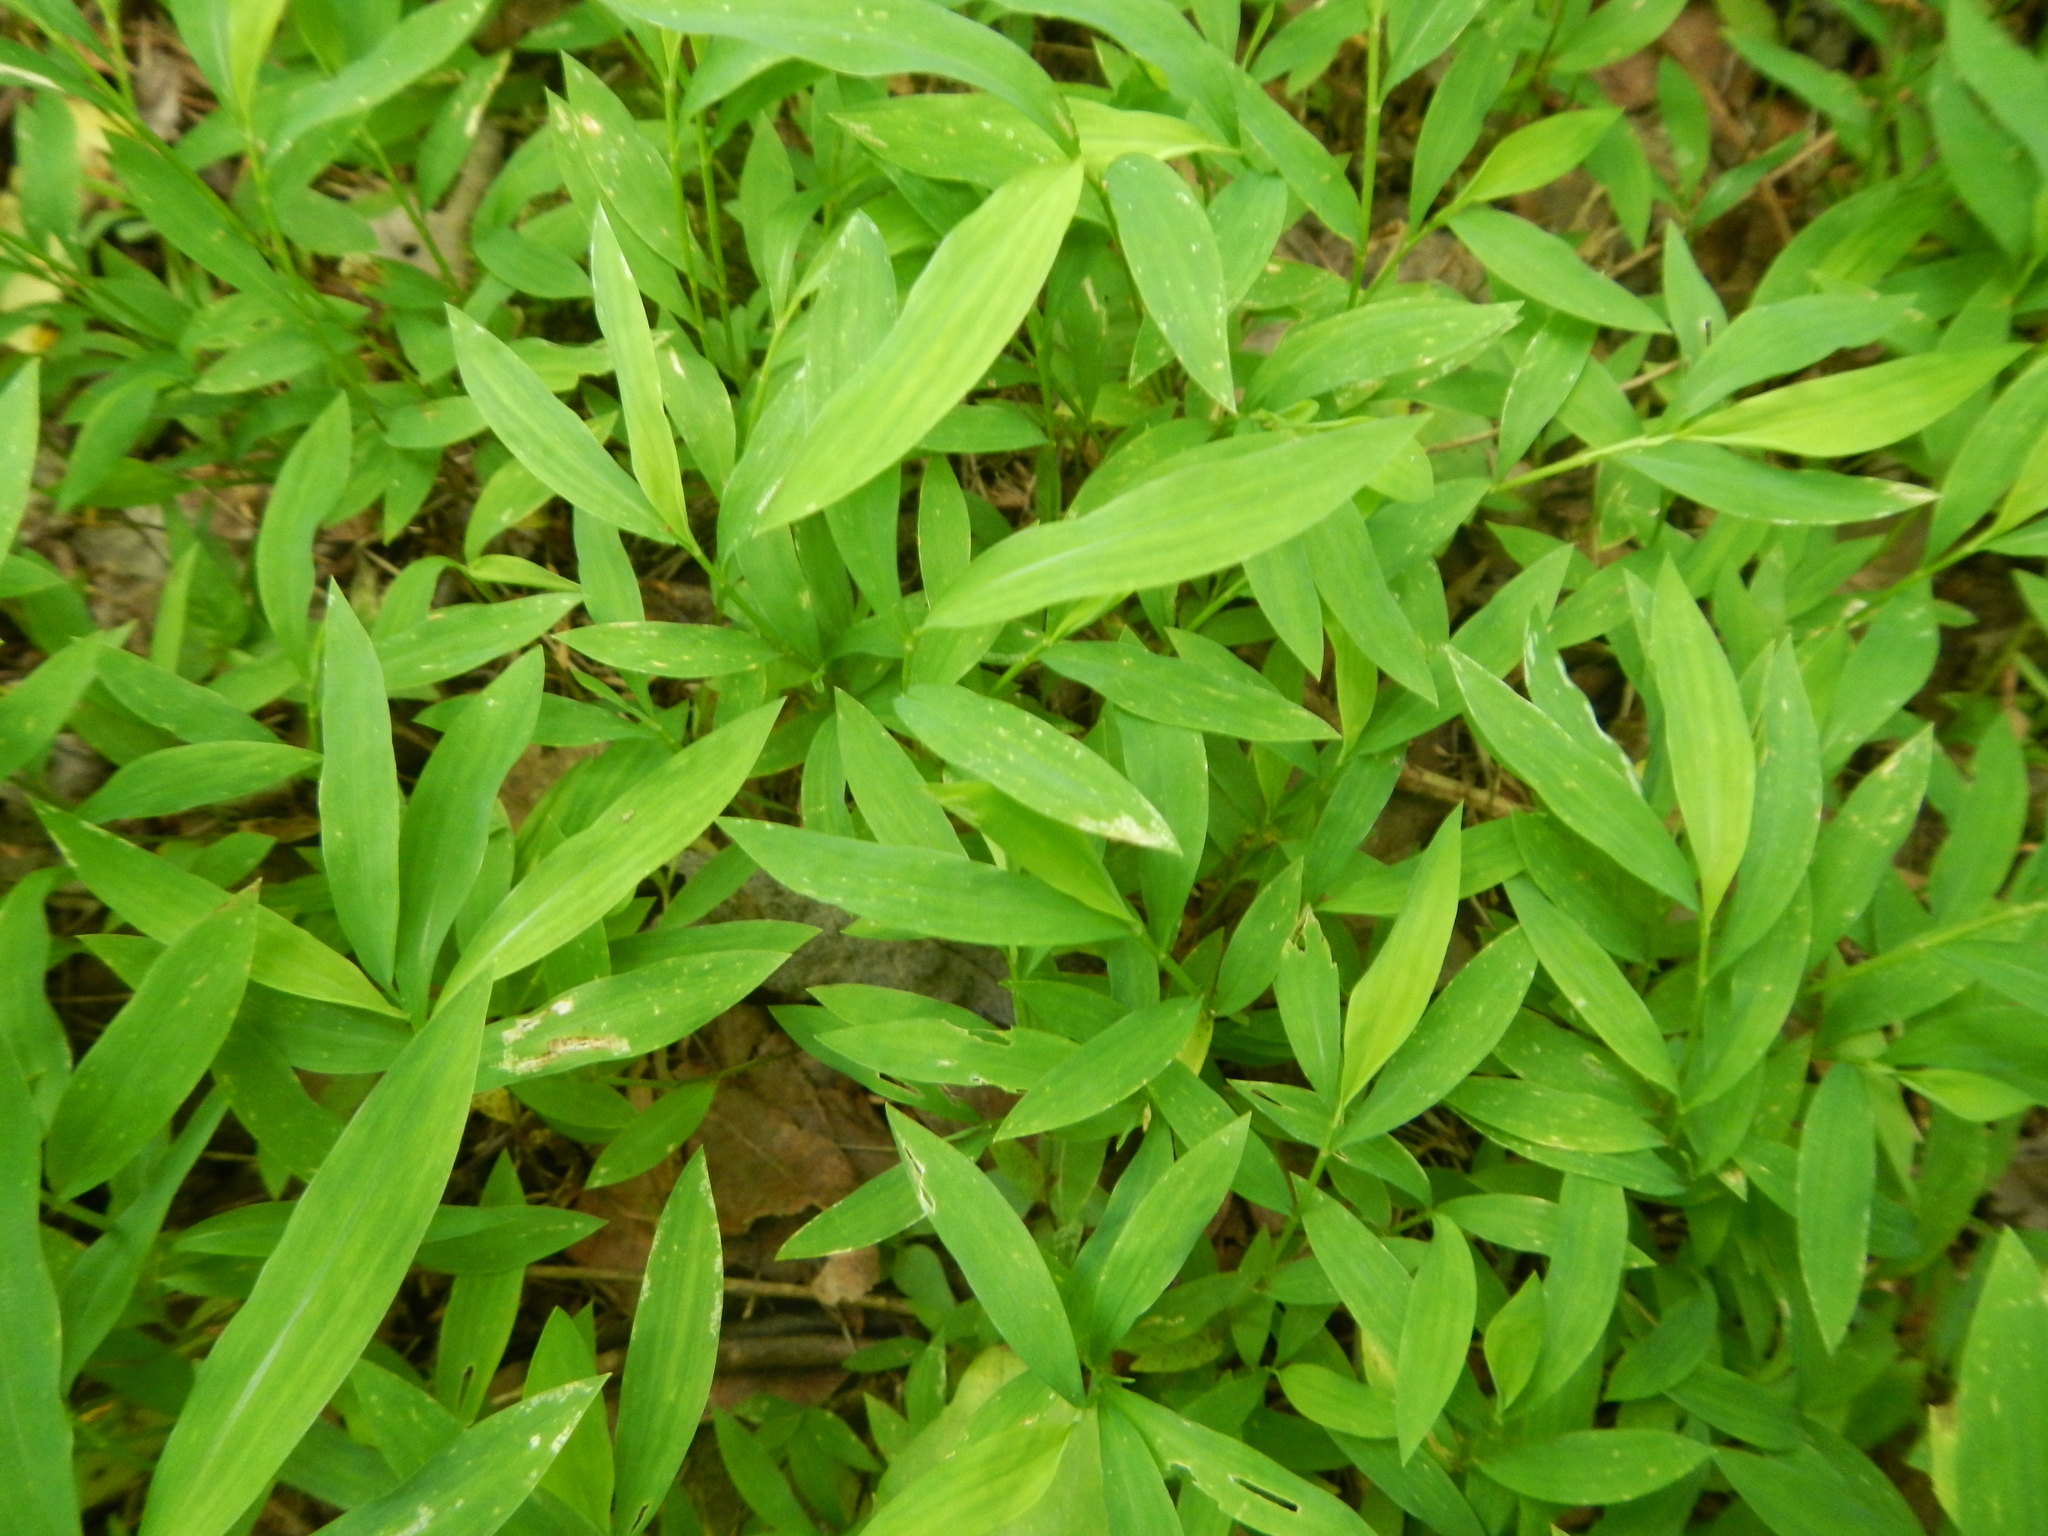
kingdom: Plantae
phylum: Tracheophyta
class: Liliopsida
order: Poales
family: Poaceae
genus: Microstegium
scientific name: Microstegium vimineum
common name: Japanese stiltgrass
